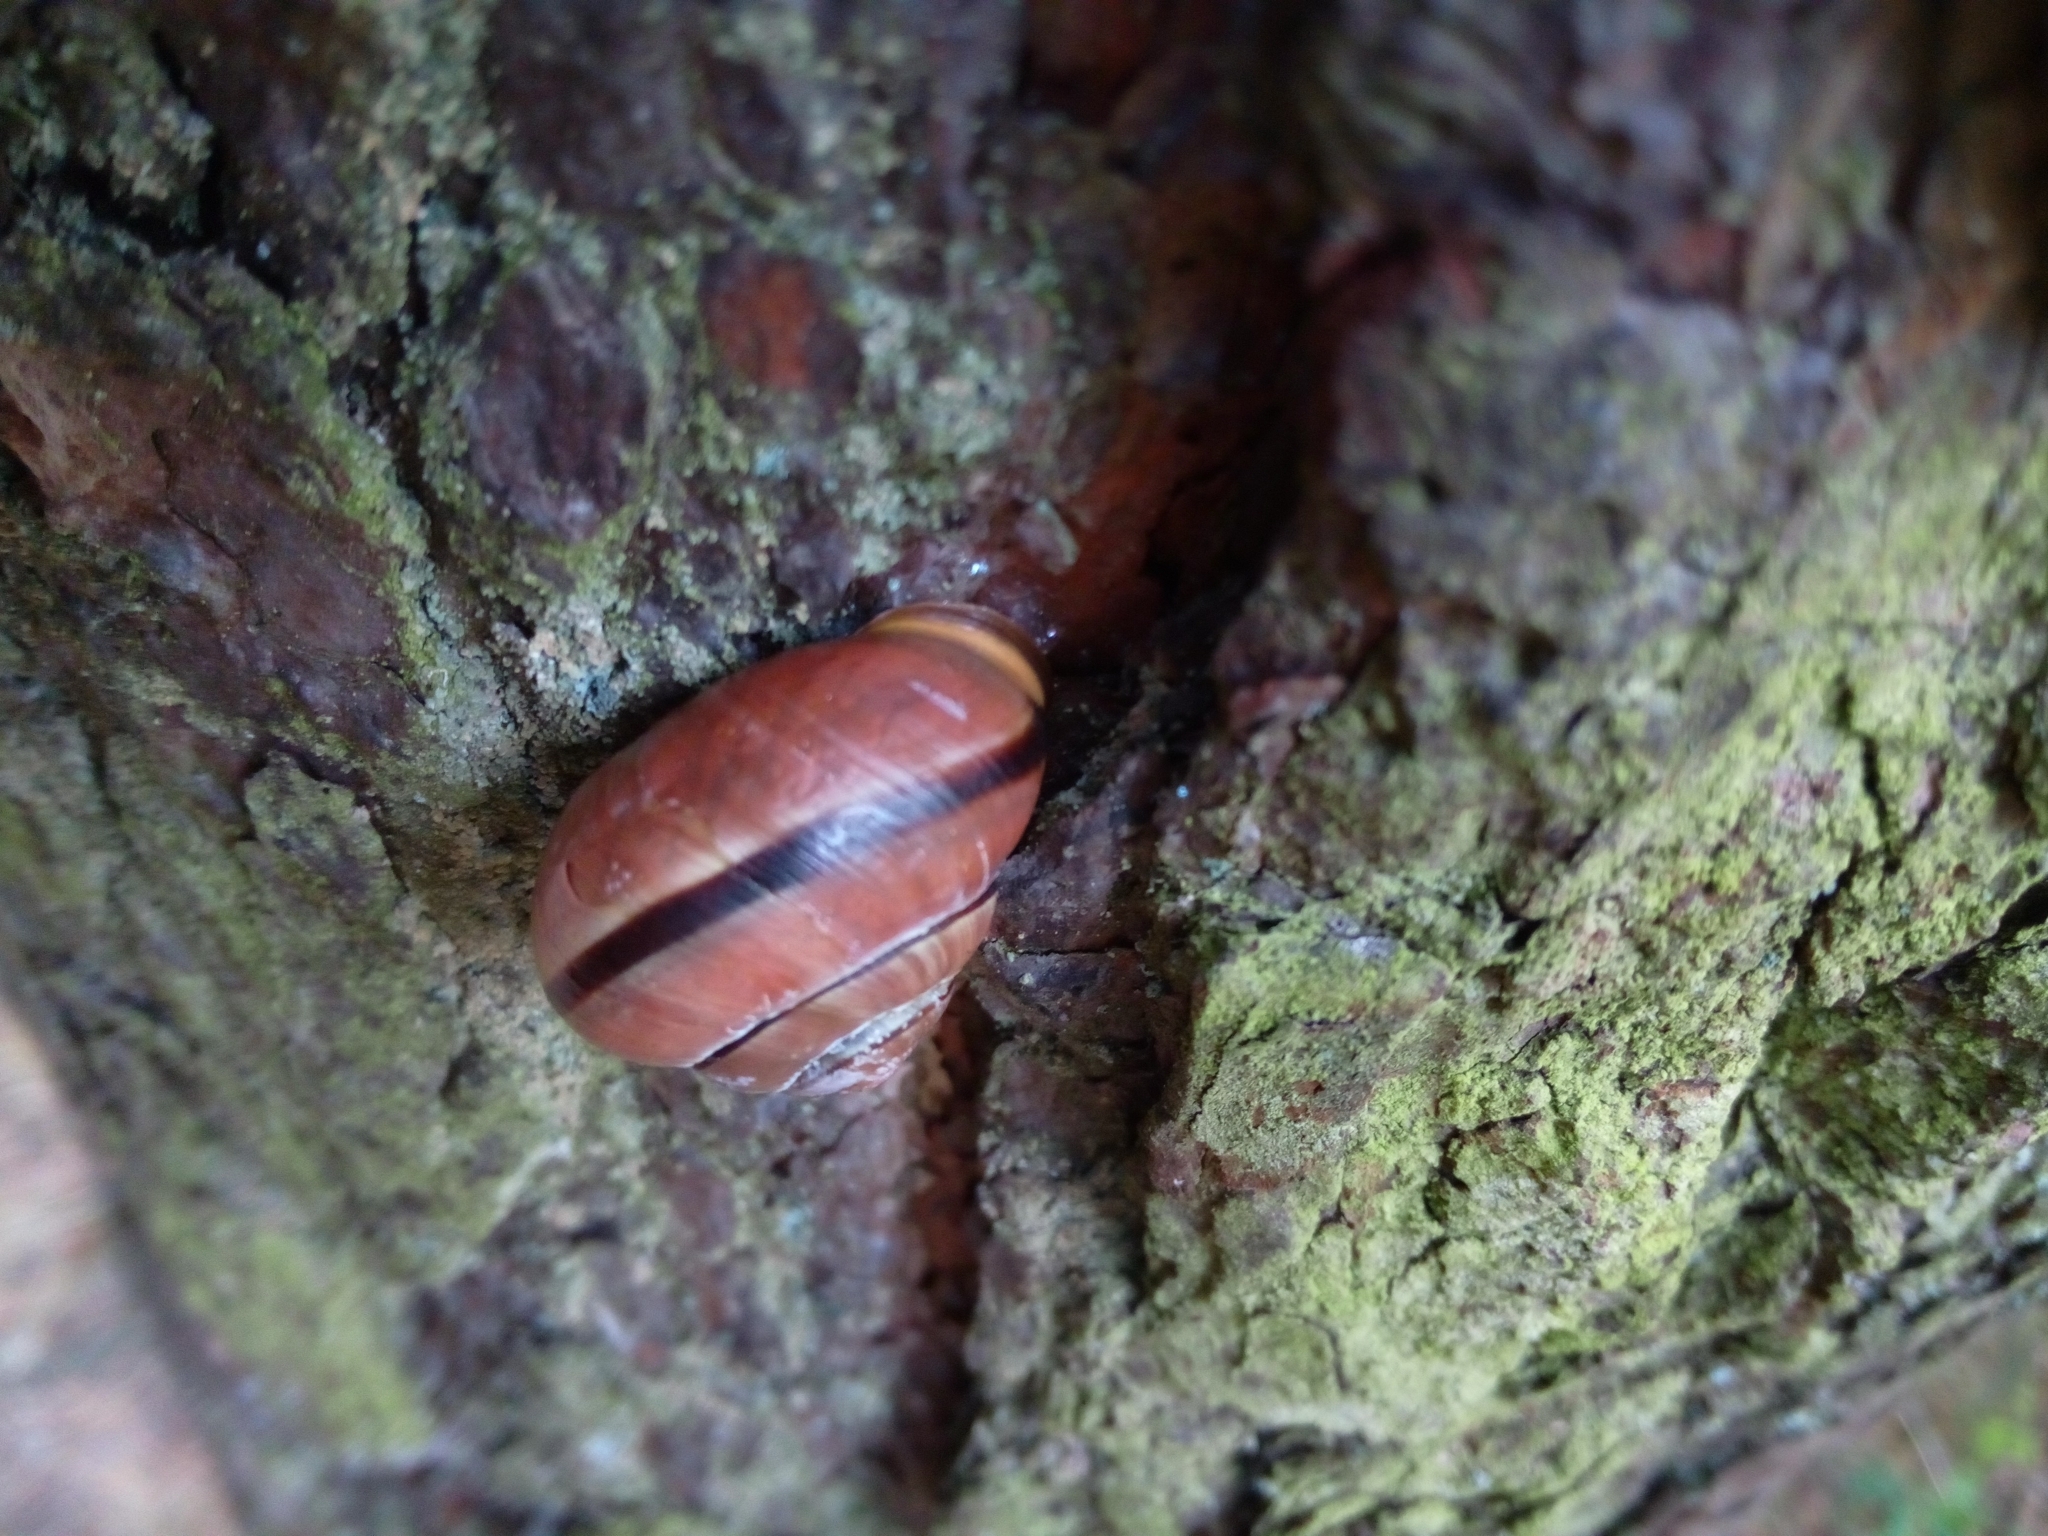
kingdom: Animalia
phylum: Mollusca
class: Gastropoda
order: Stylommatophora
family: Helicidae
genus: Cepaea
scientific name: Cepaea nemoralis
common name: Grovesnail
